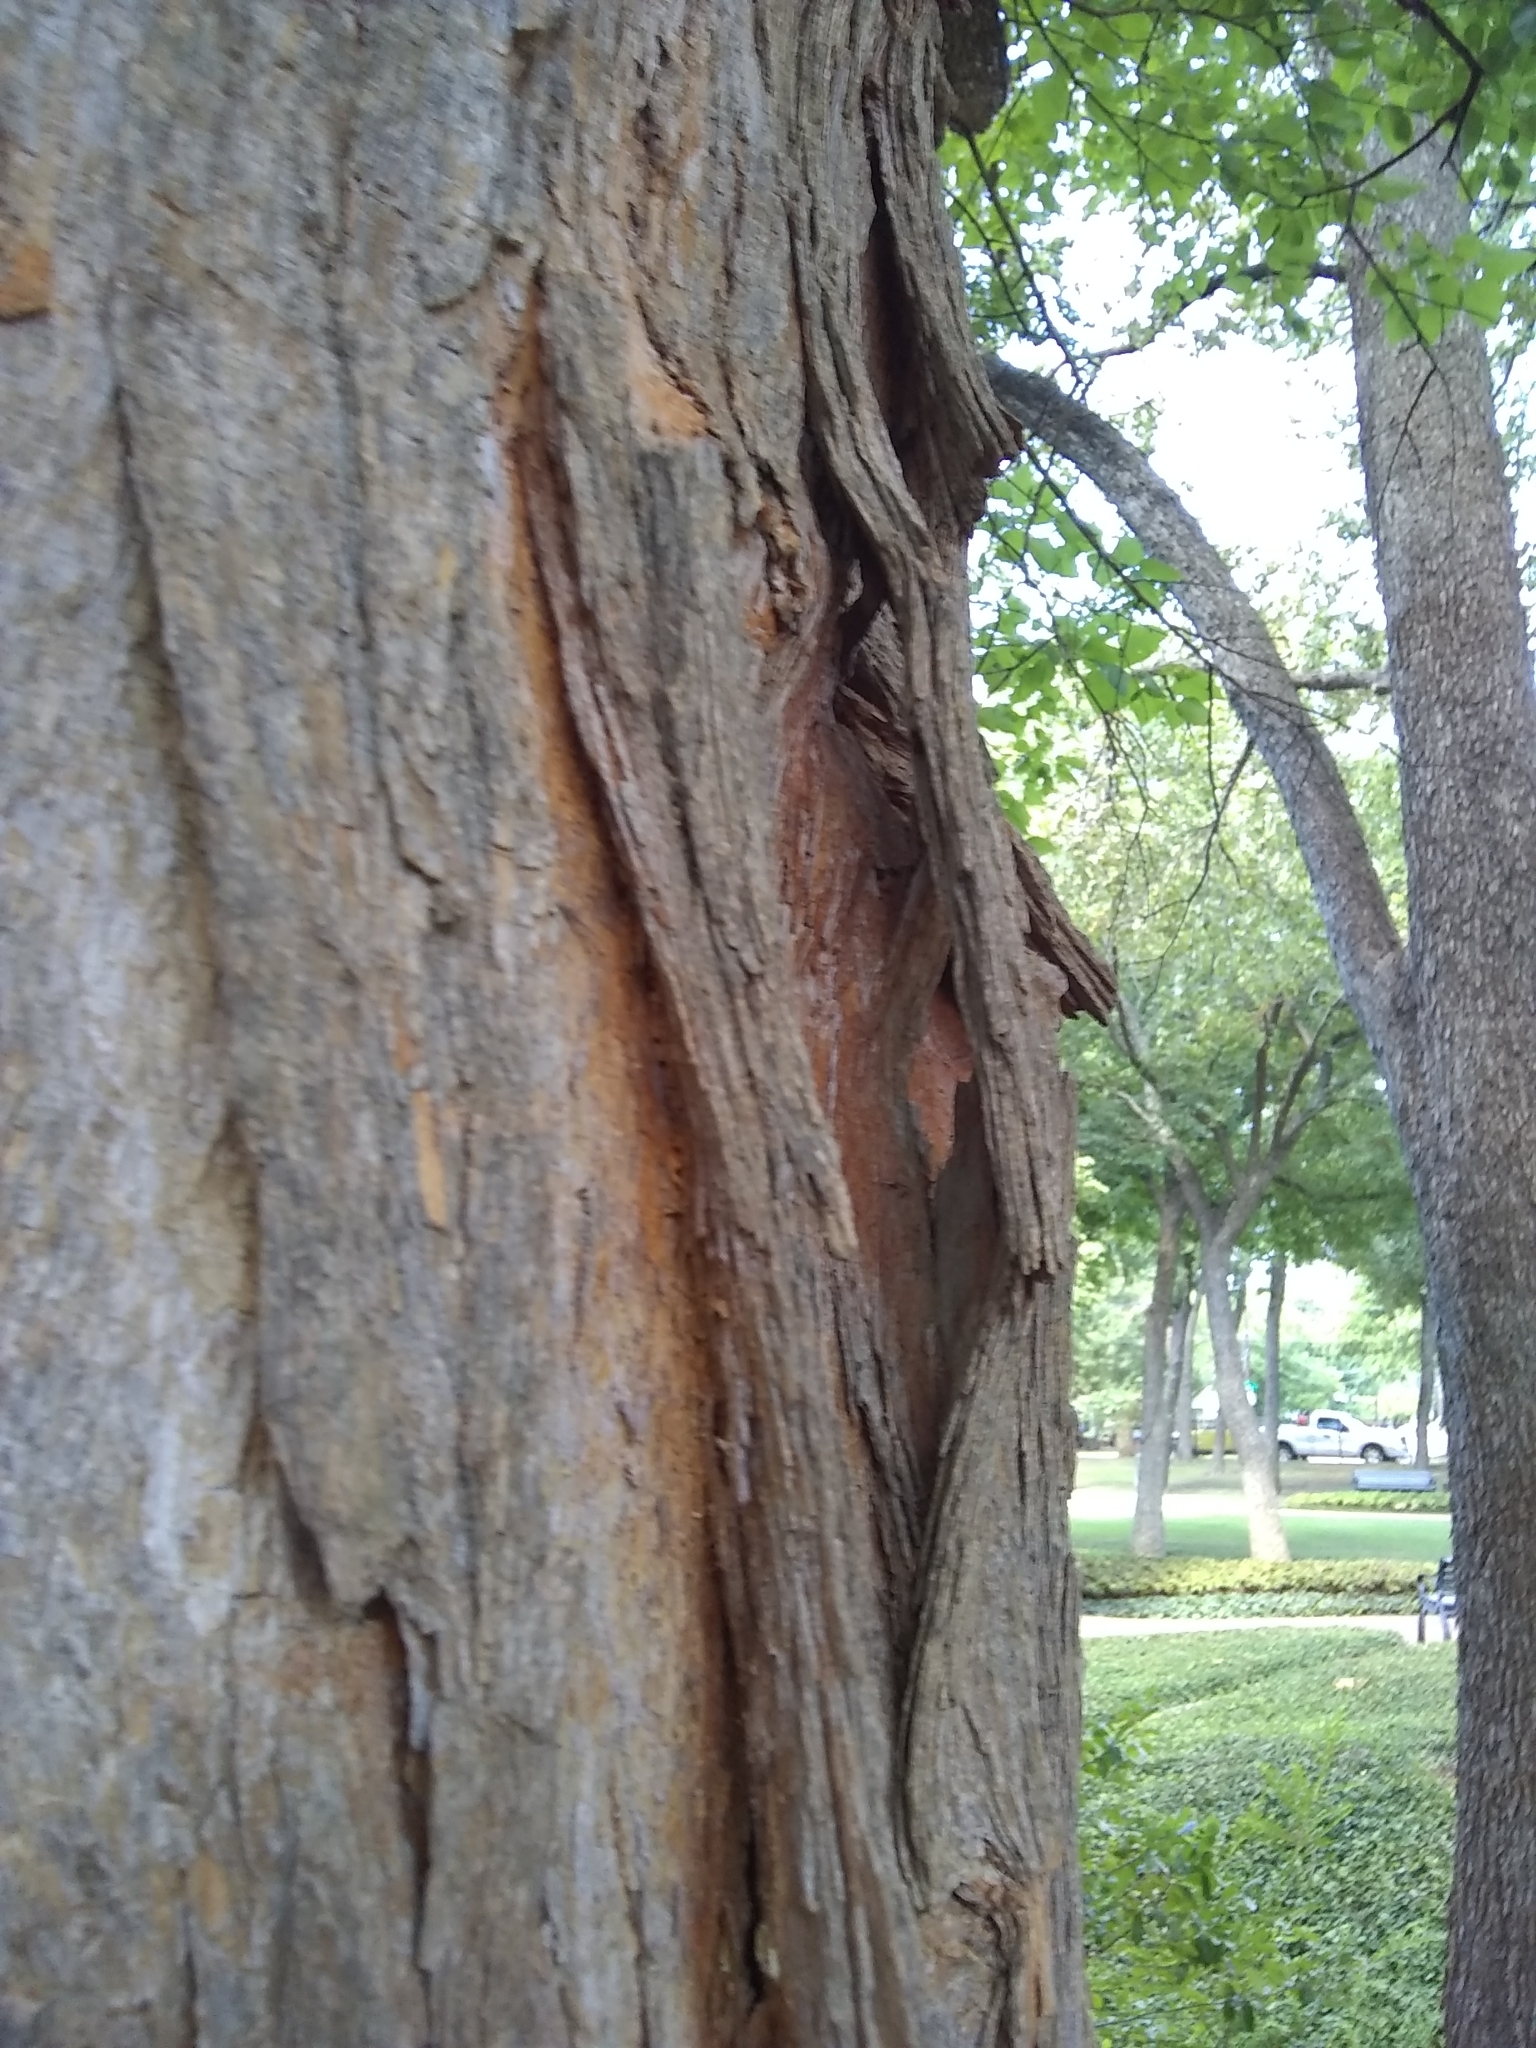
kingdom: Plantae
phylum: Tracheophyta
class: Magnoliopsida
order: Rosales
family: Moraceae
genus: Maclura
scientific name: Maclura pomifera
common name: Osage-orange
